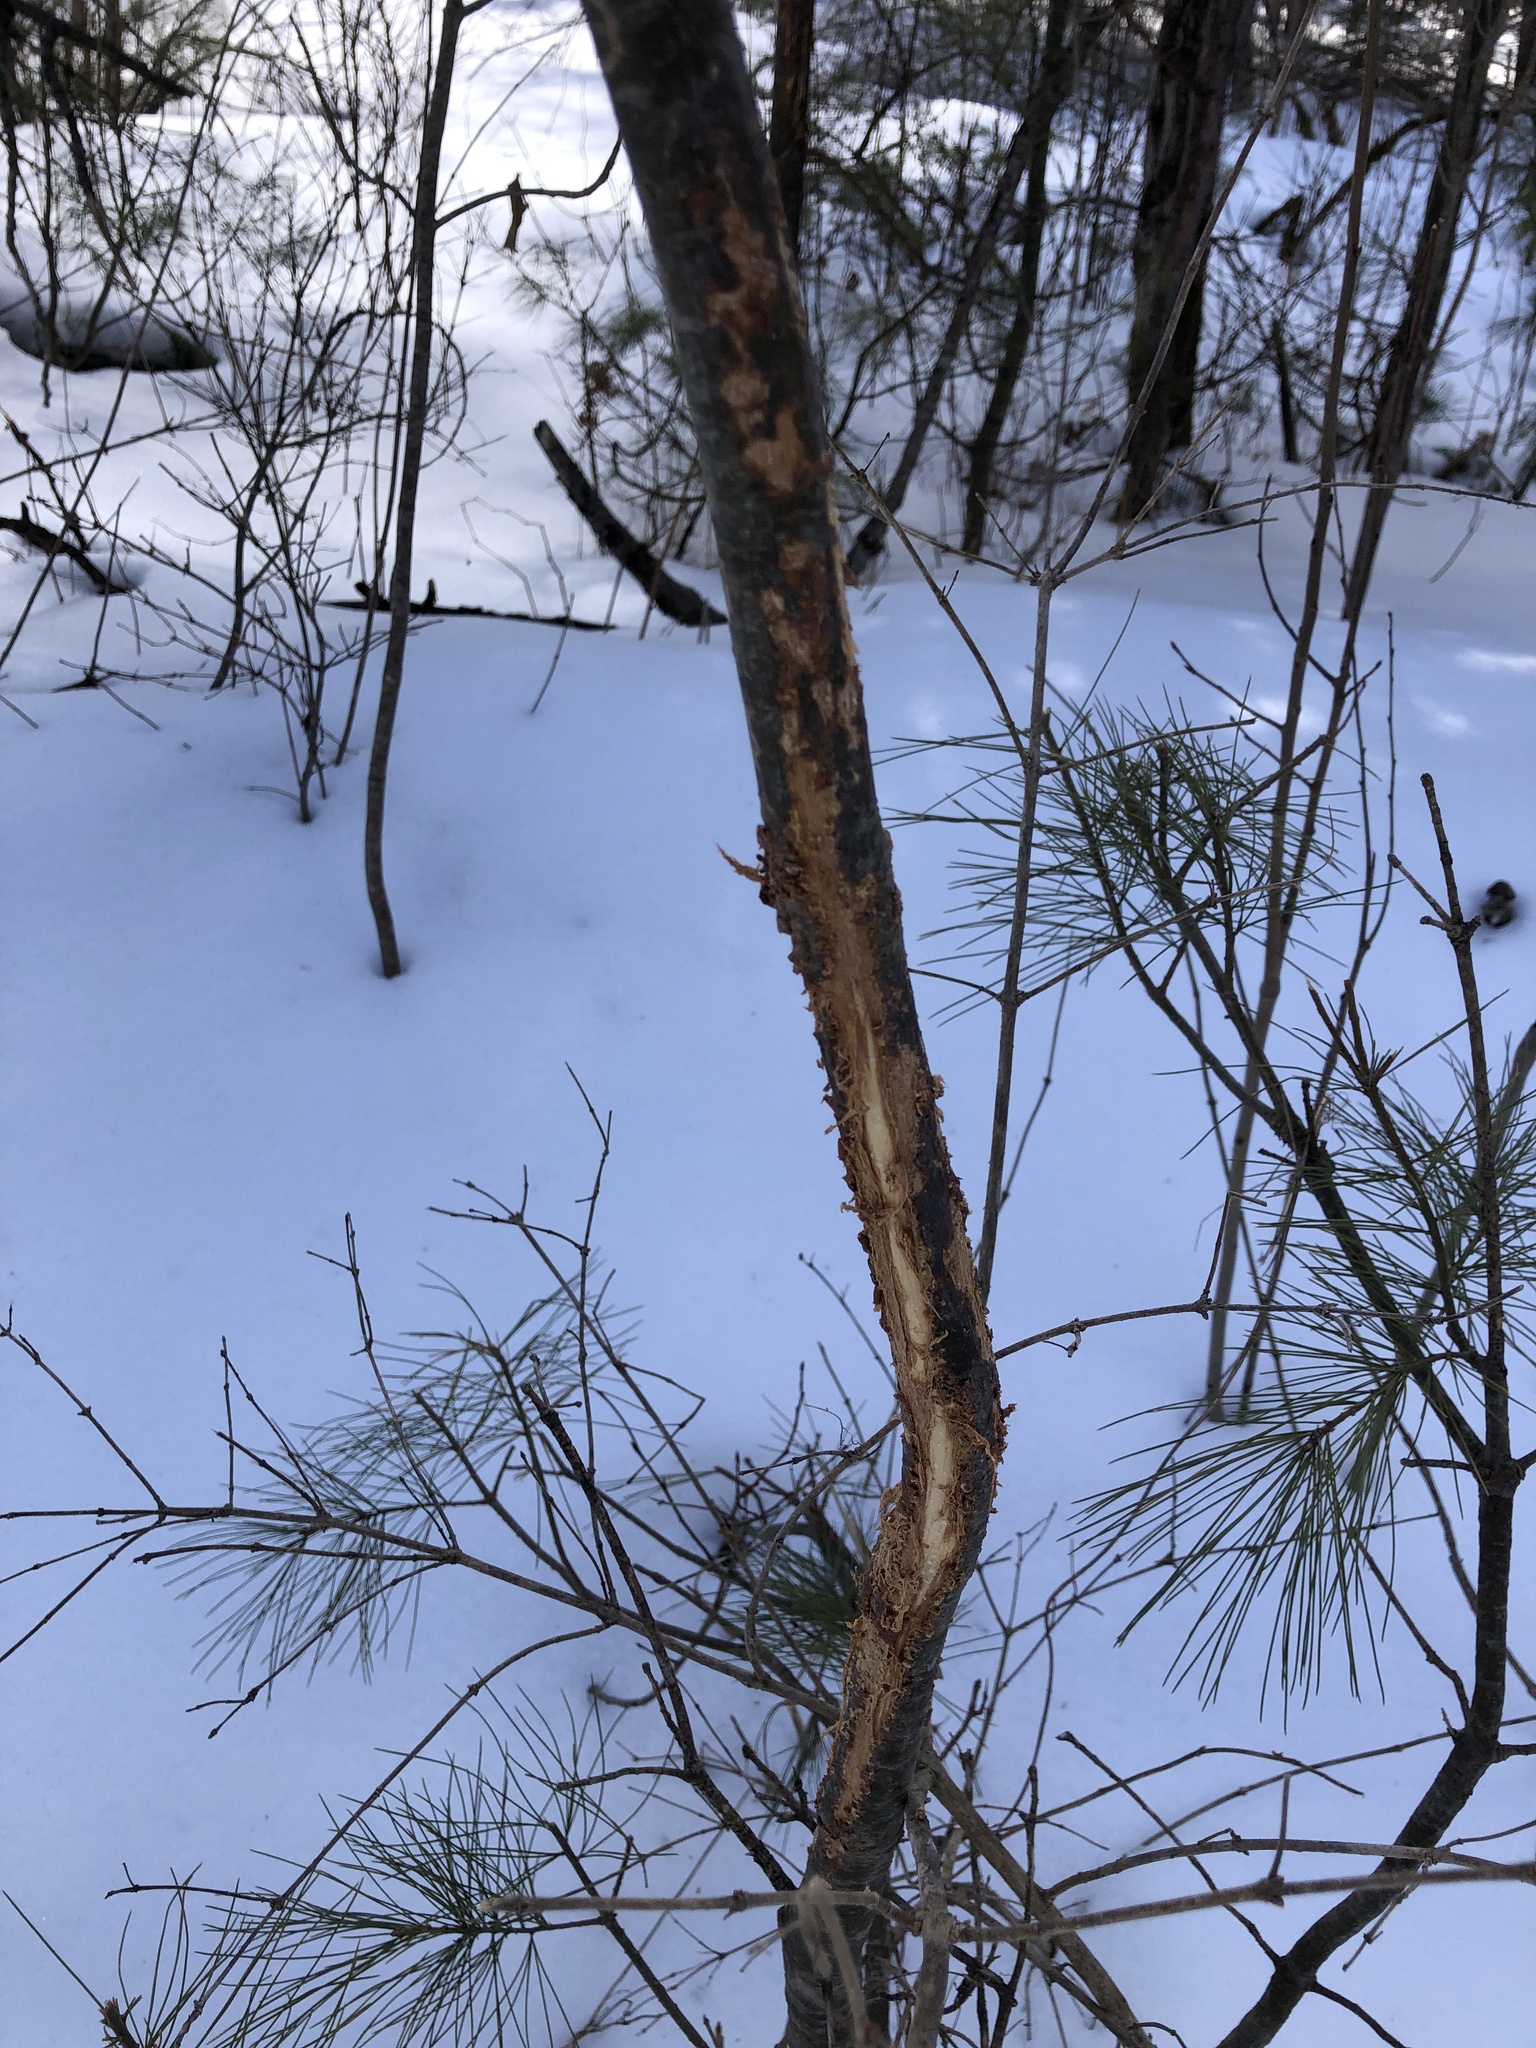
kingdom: Plantae
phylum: Tracheophyta
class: Pinopsida
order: Pinales
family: Pinaceae
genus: Pinus
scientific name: Pinus strobus
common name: Weymouth pine
